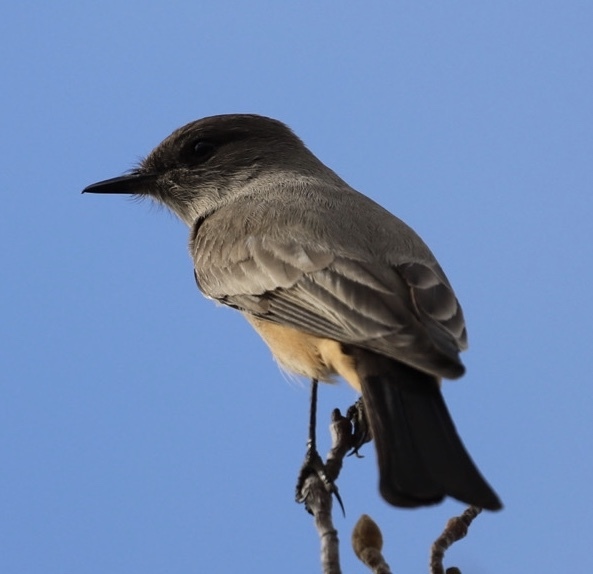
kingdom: Animalia
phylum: Chordata
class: Aves
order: Passeriformes
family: Tyrannidae
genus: Sayornis
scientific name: Sayornis saya
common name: Say's phoebe
